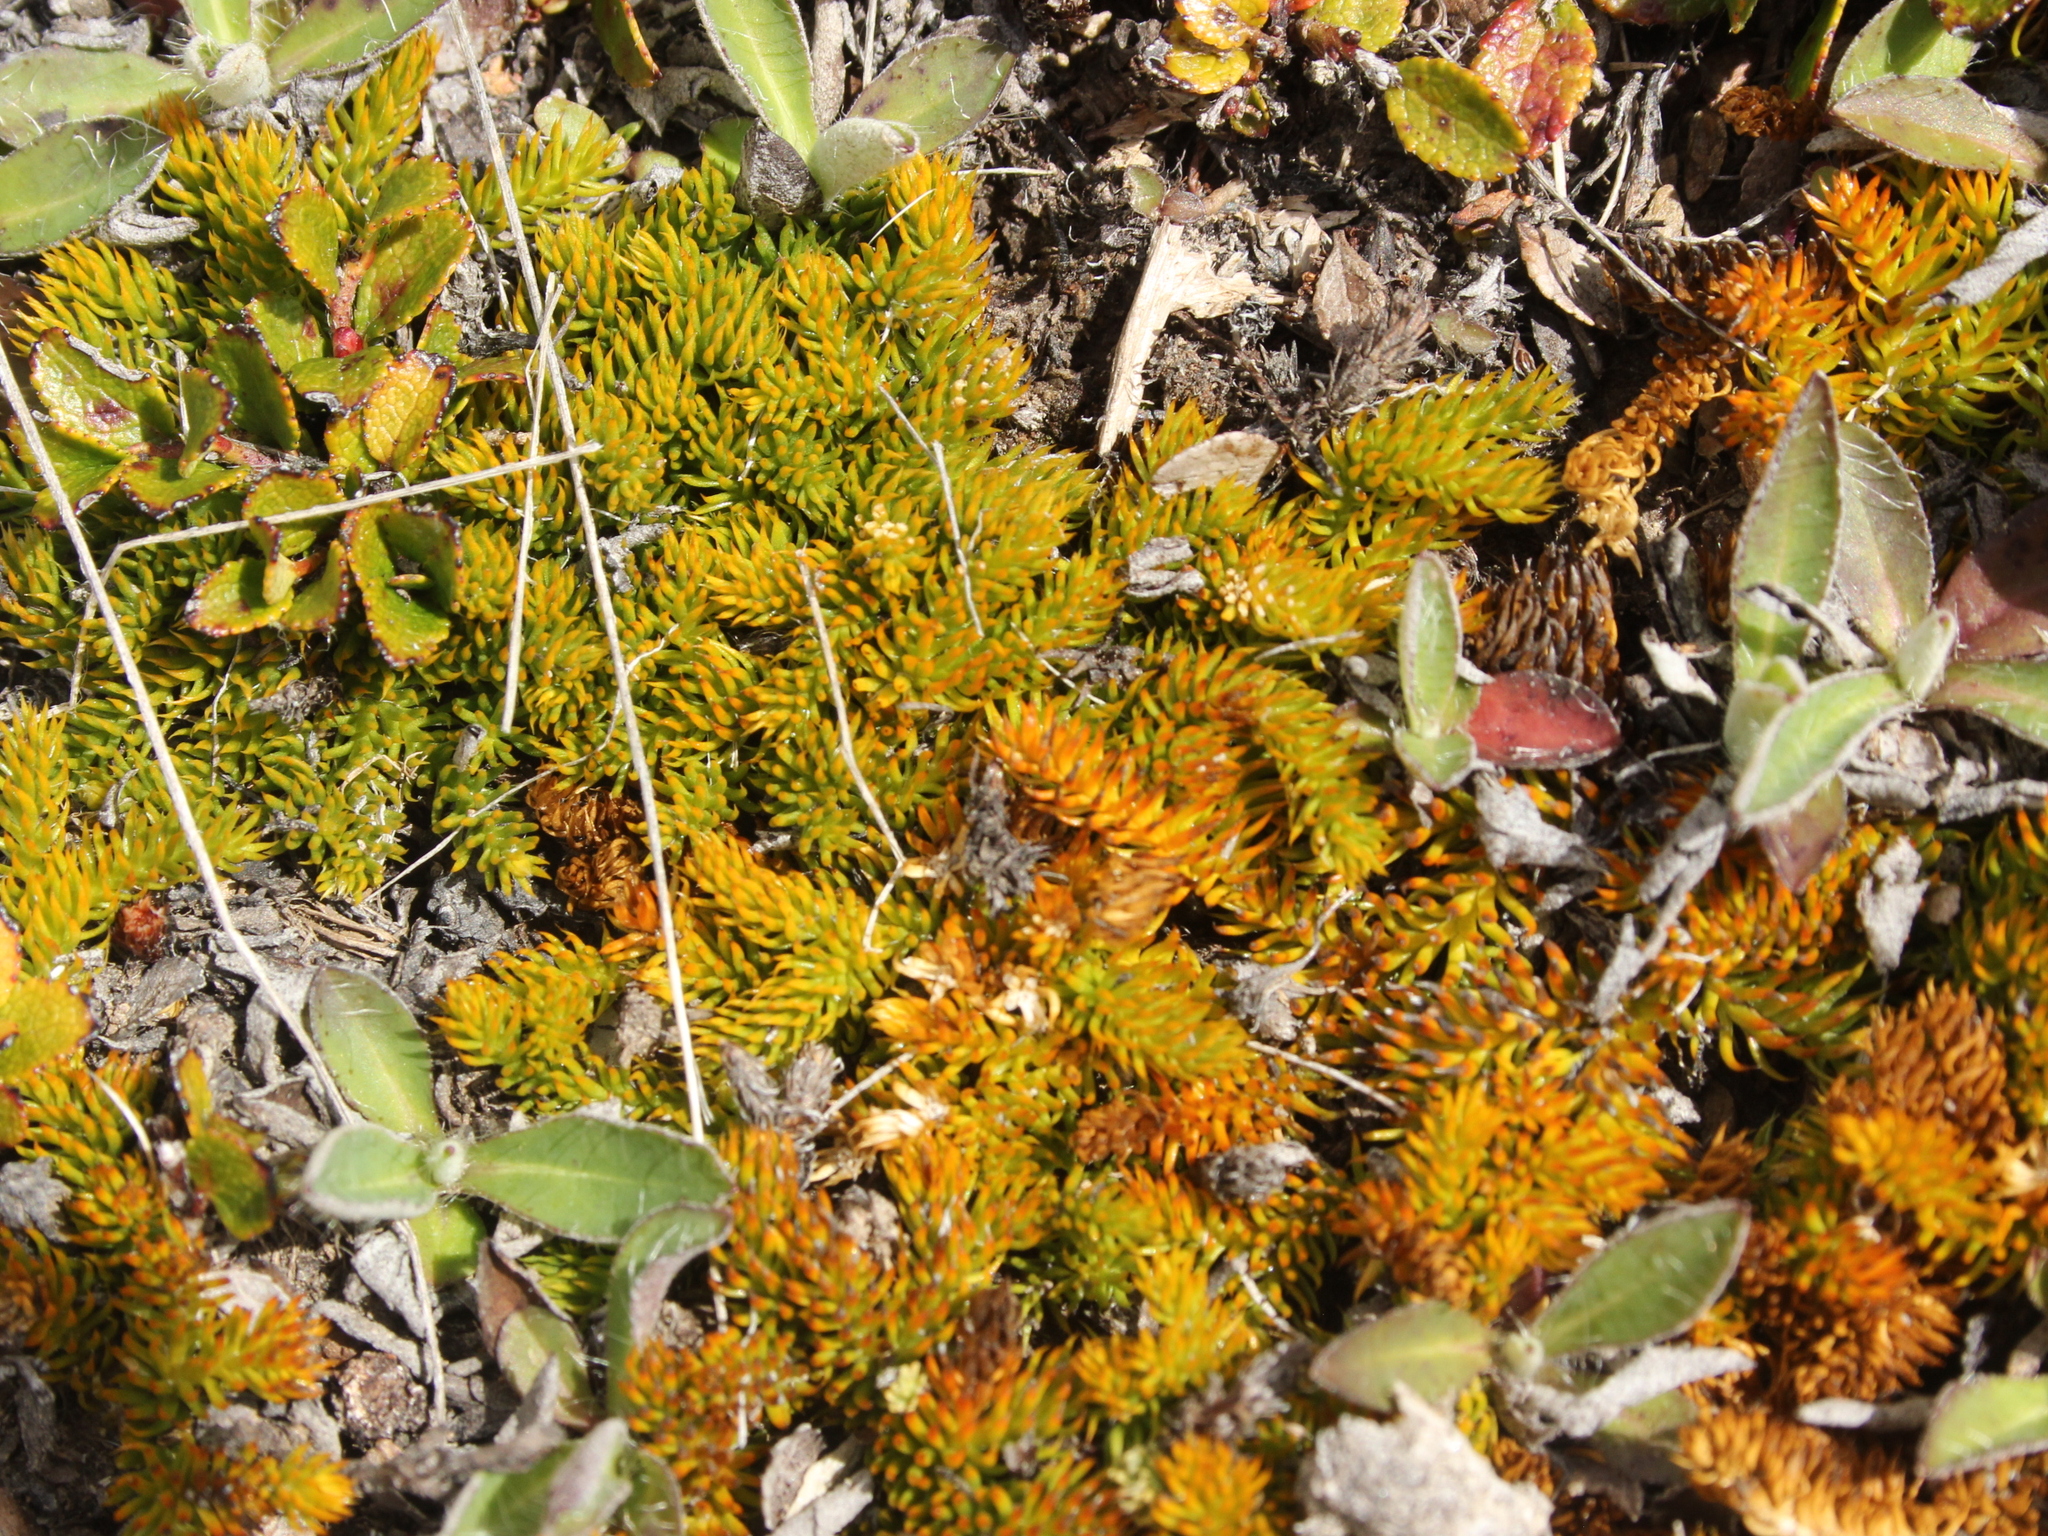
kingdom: Plantae
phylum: Tracheophyta
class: Lycopodiopsida
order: Lycopodiales
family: Lycopodiaceae
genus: Austrolycopodium
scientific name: Austrolycopodium fastigiatum
